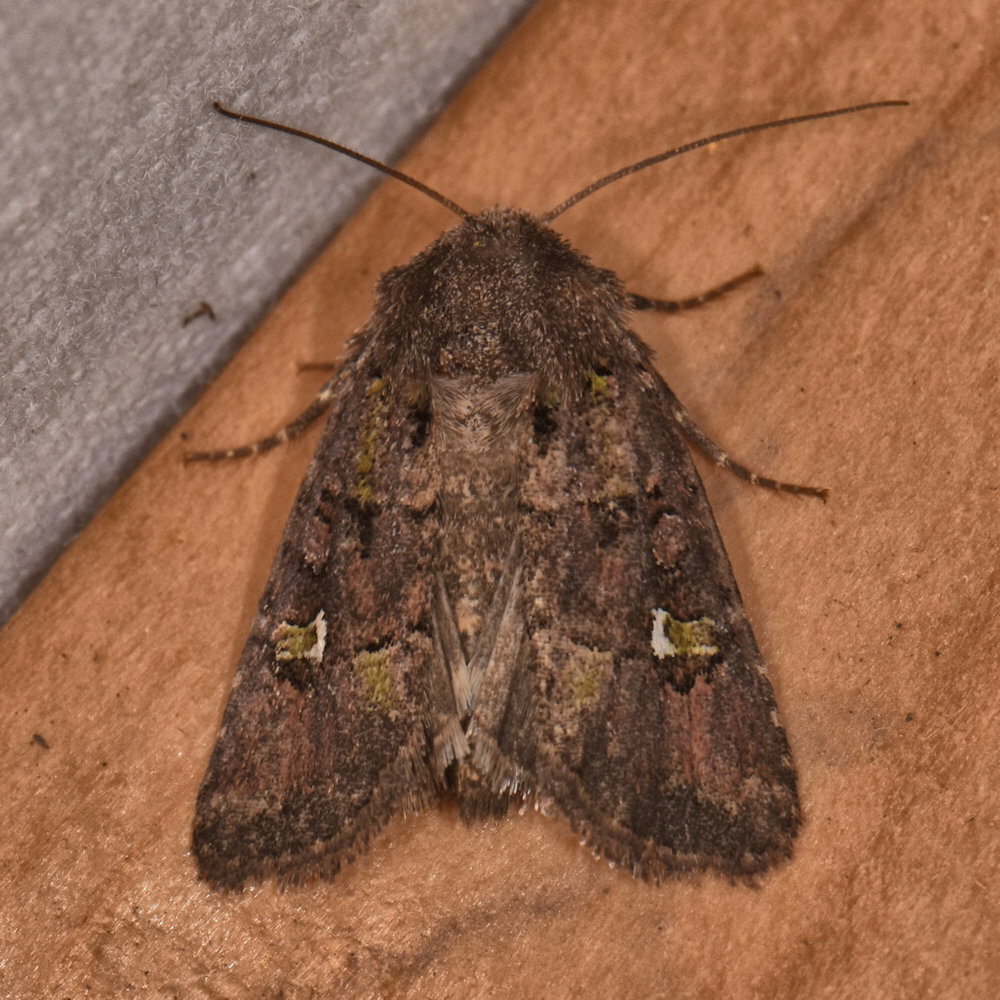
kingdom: Animalia
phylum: Arthropoda
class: Insecta
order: Lepidoptera
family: Noctuidae
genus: Lacinipolia
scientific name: Lacinipolia renigera
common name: Kidney-spotted minor
